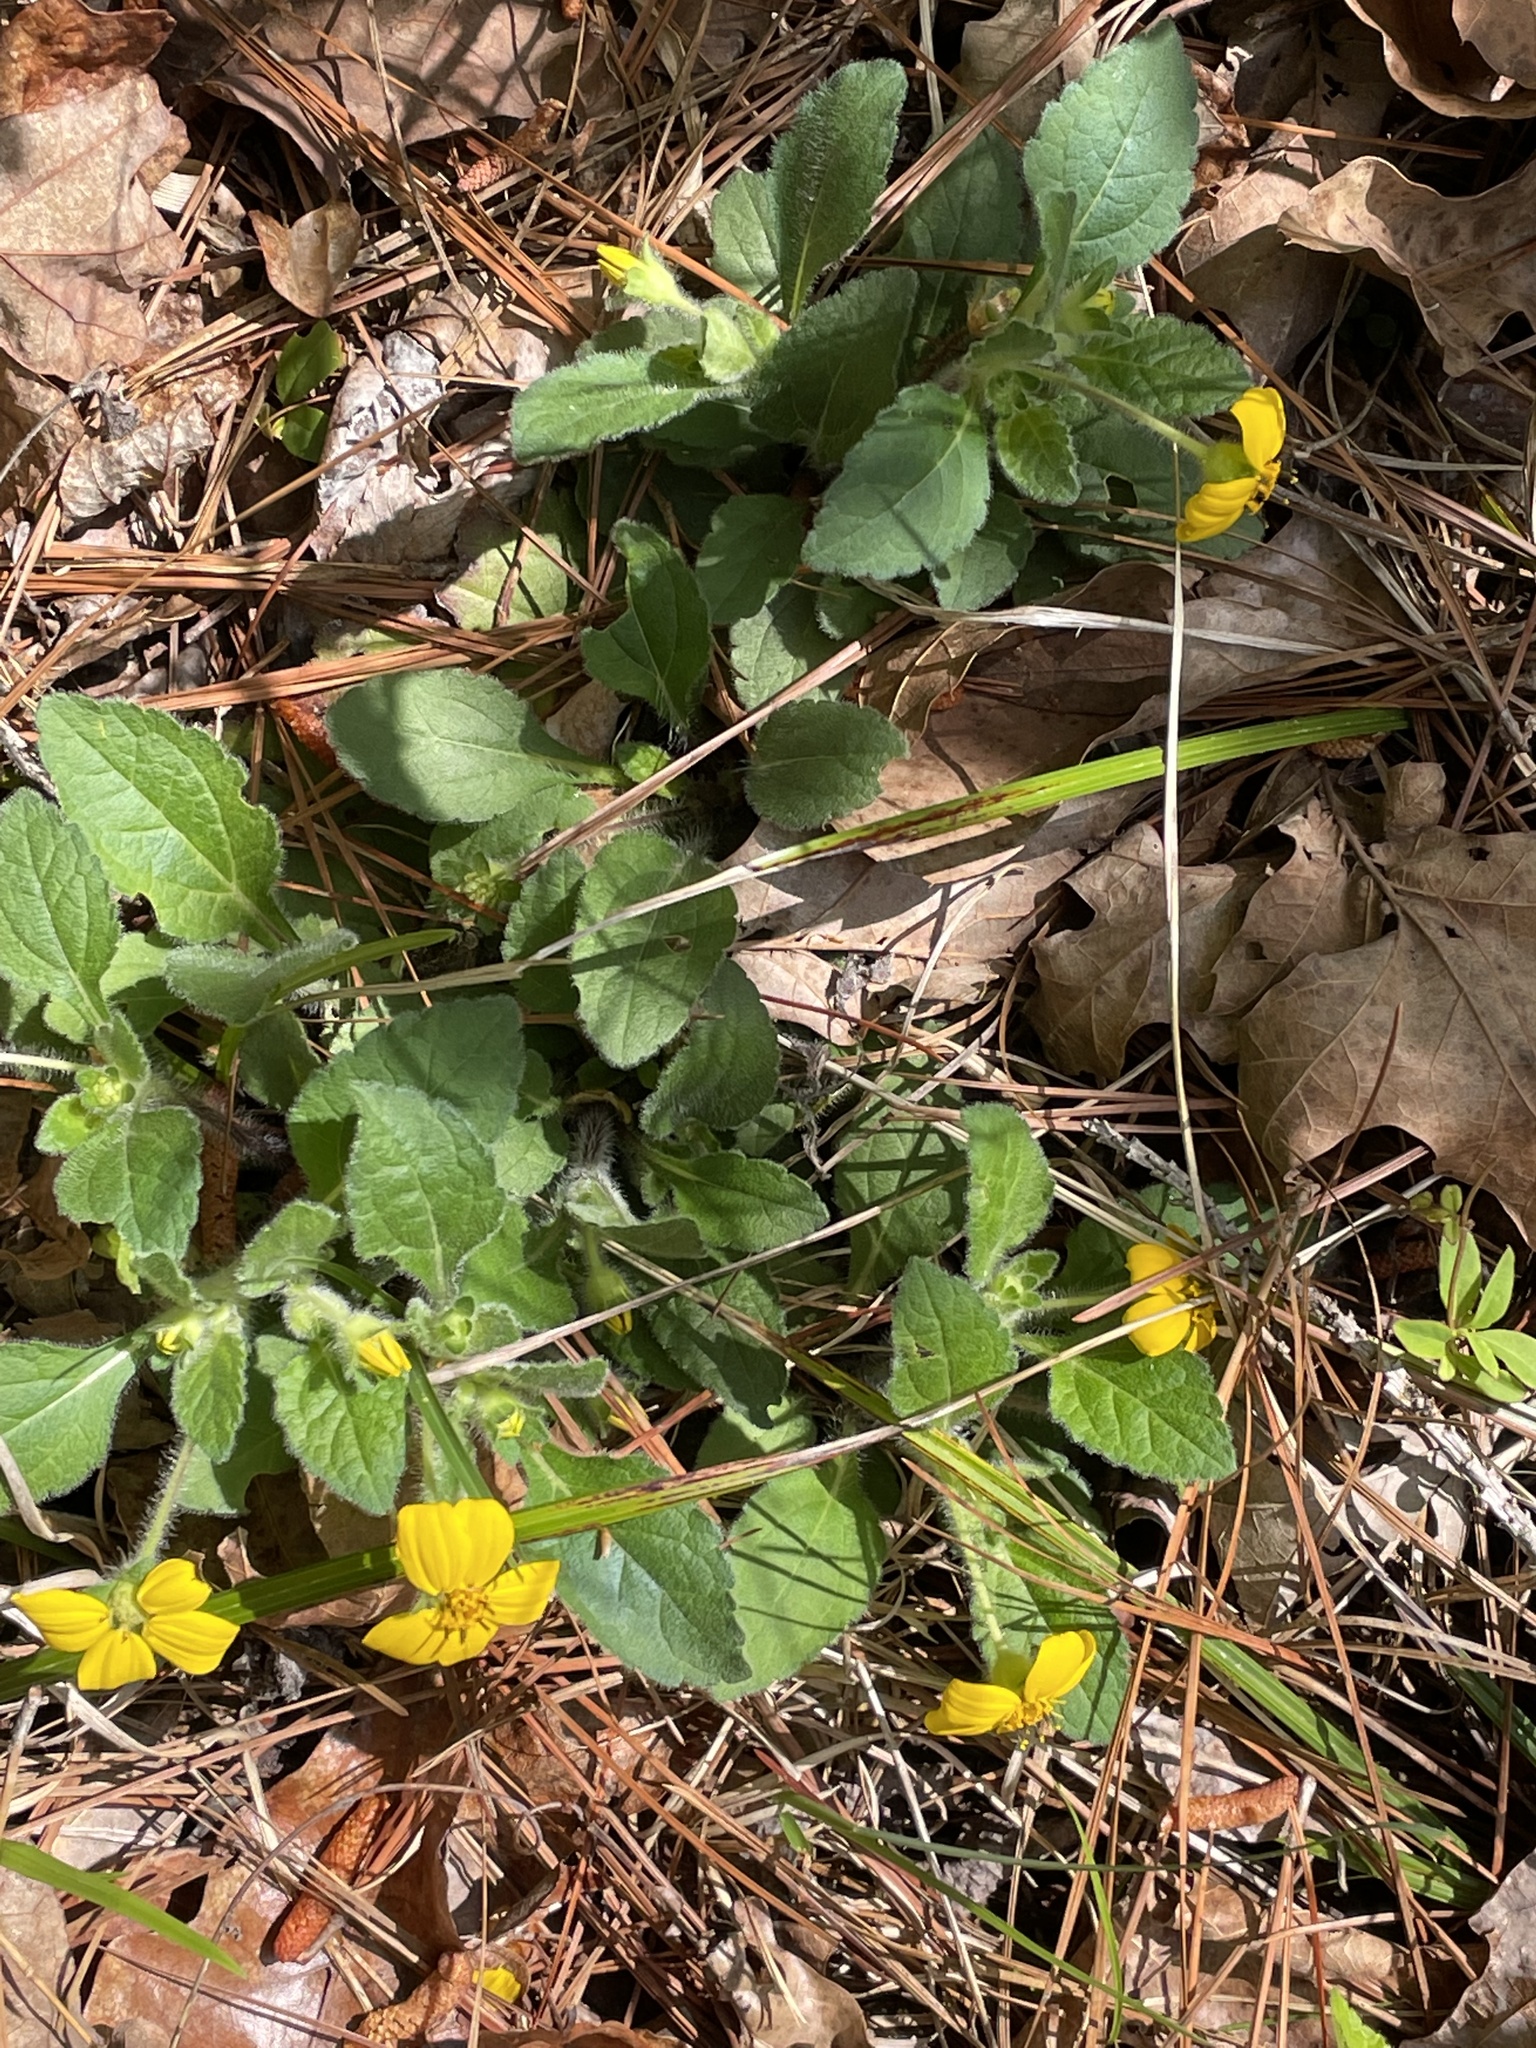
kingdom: Plantae
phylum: Tracheophyta
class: Magnoliopsida
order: Asterales
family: Asteraceae
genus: Chrysogonum
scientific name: Chrysogonum virginianum
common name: Golden-knee
